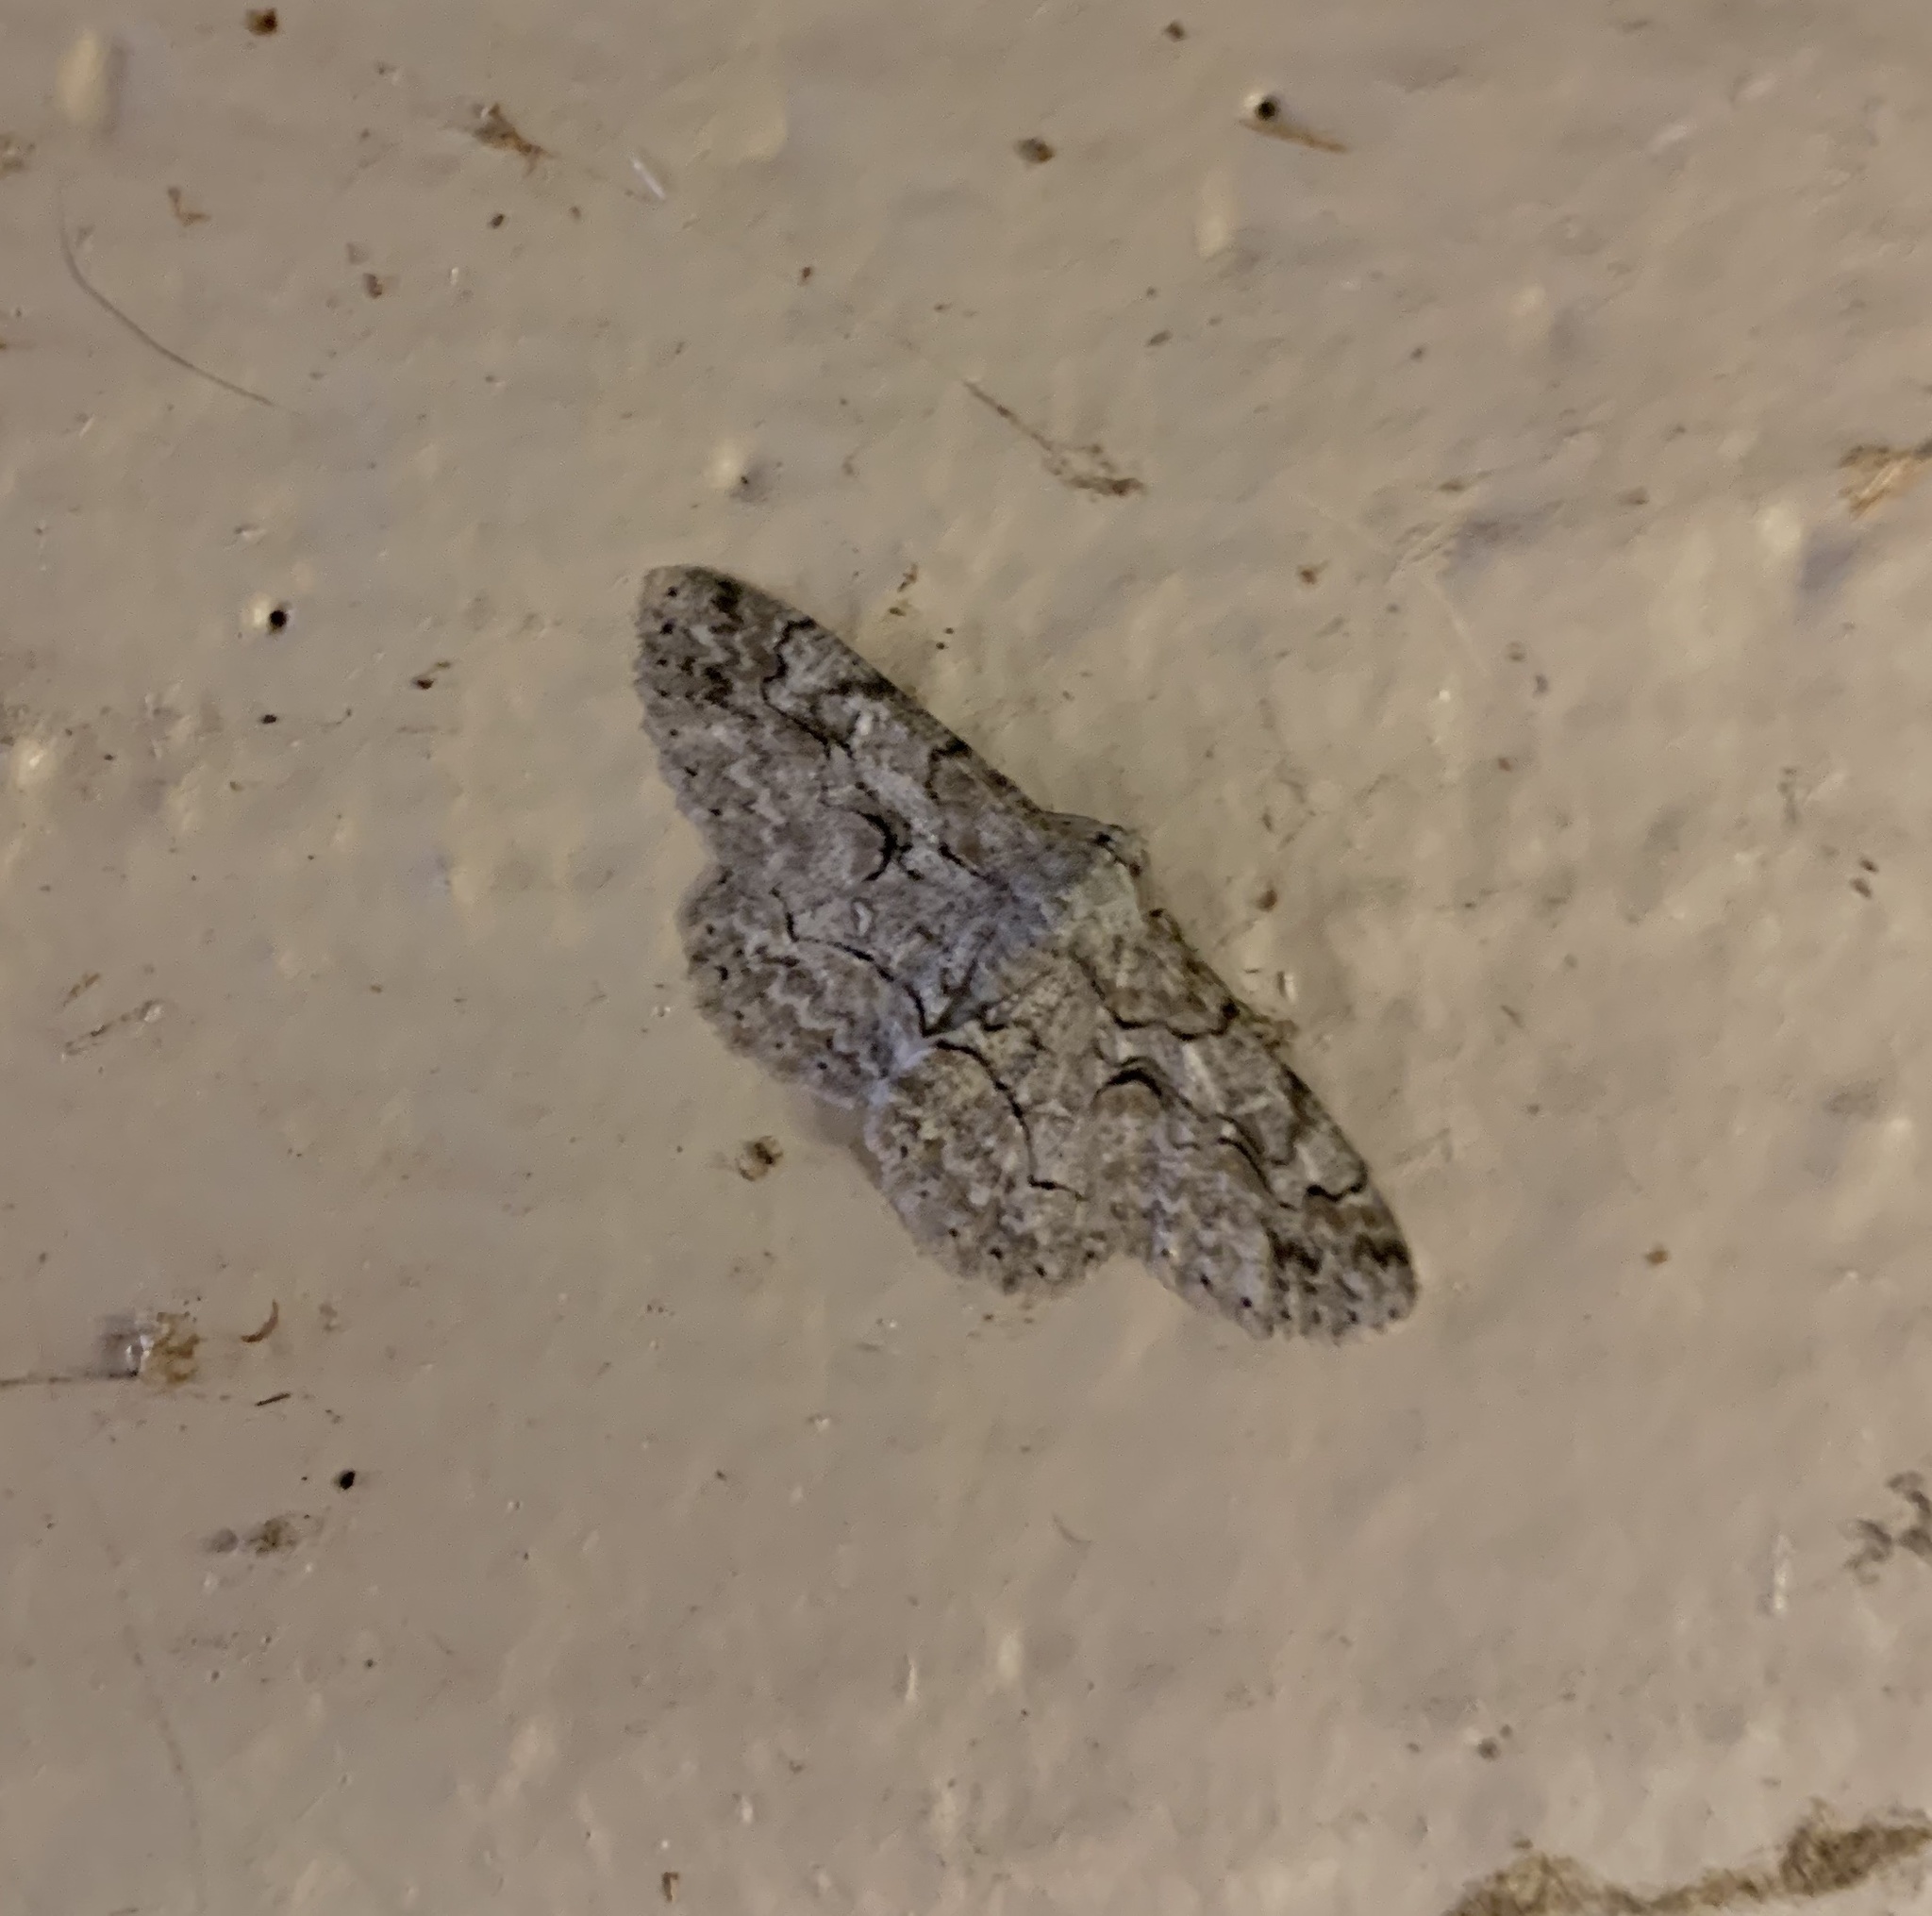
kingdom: Animalia
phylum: Arthropoda
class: Insecta
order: Lepidoptera
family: Geometridae
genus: Iridopsis
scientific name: Iridopsis defectaria
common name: Brown-shaded gray
